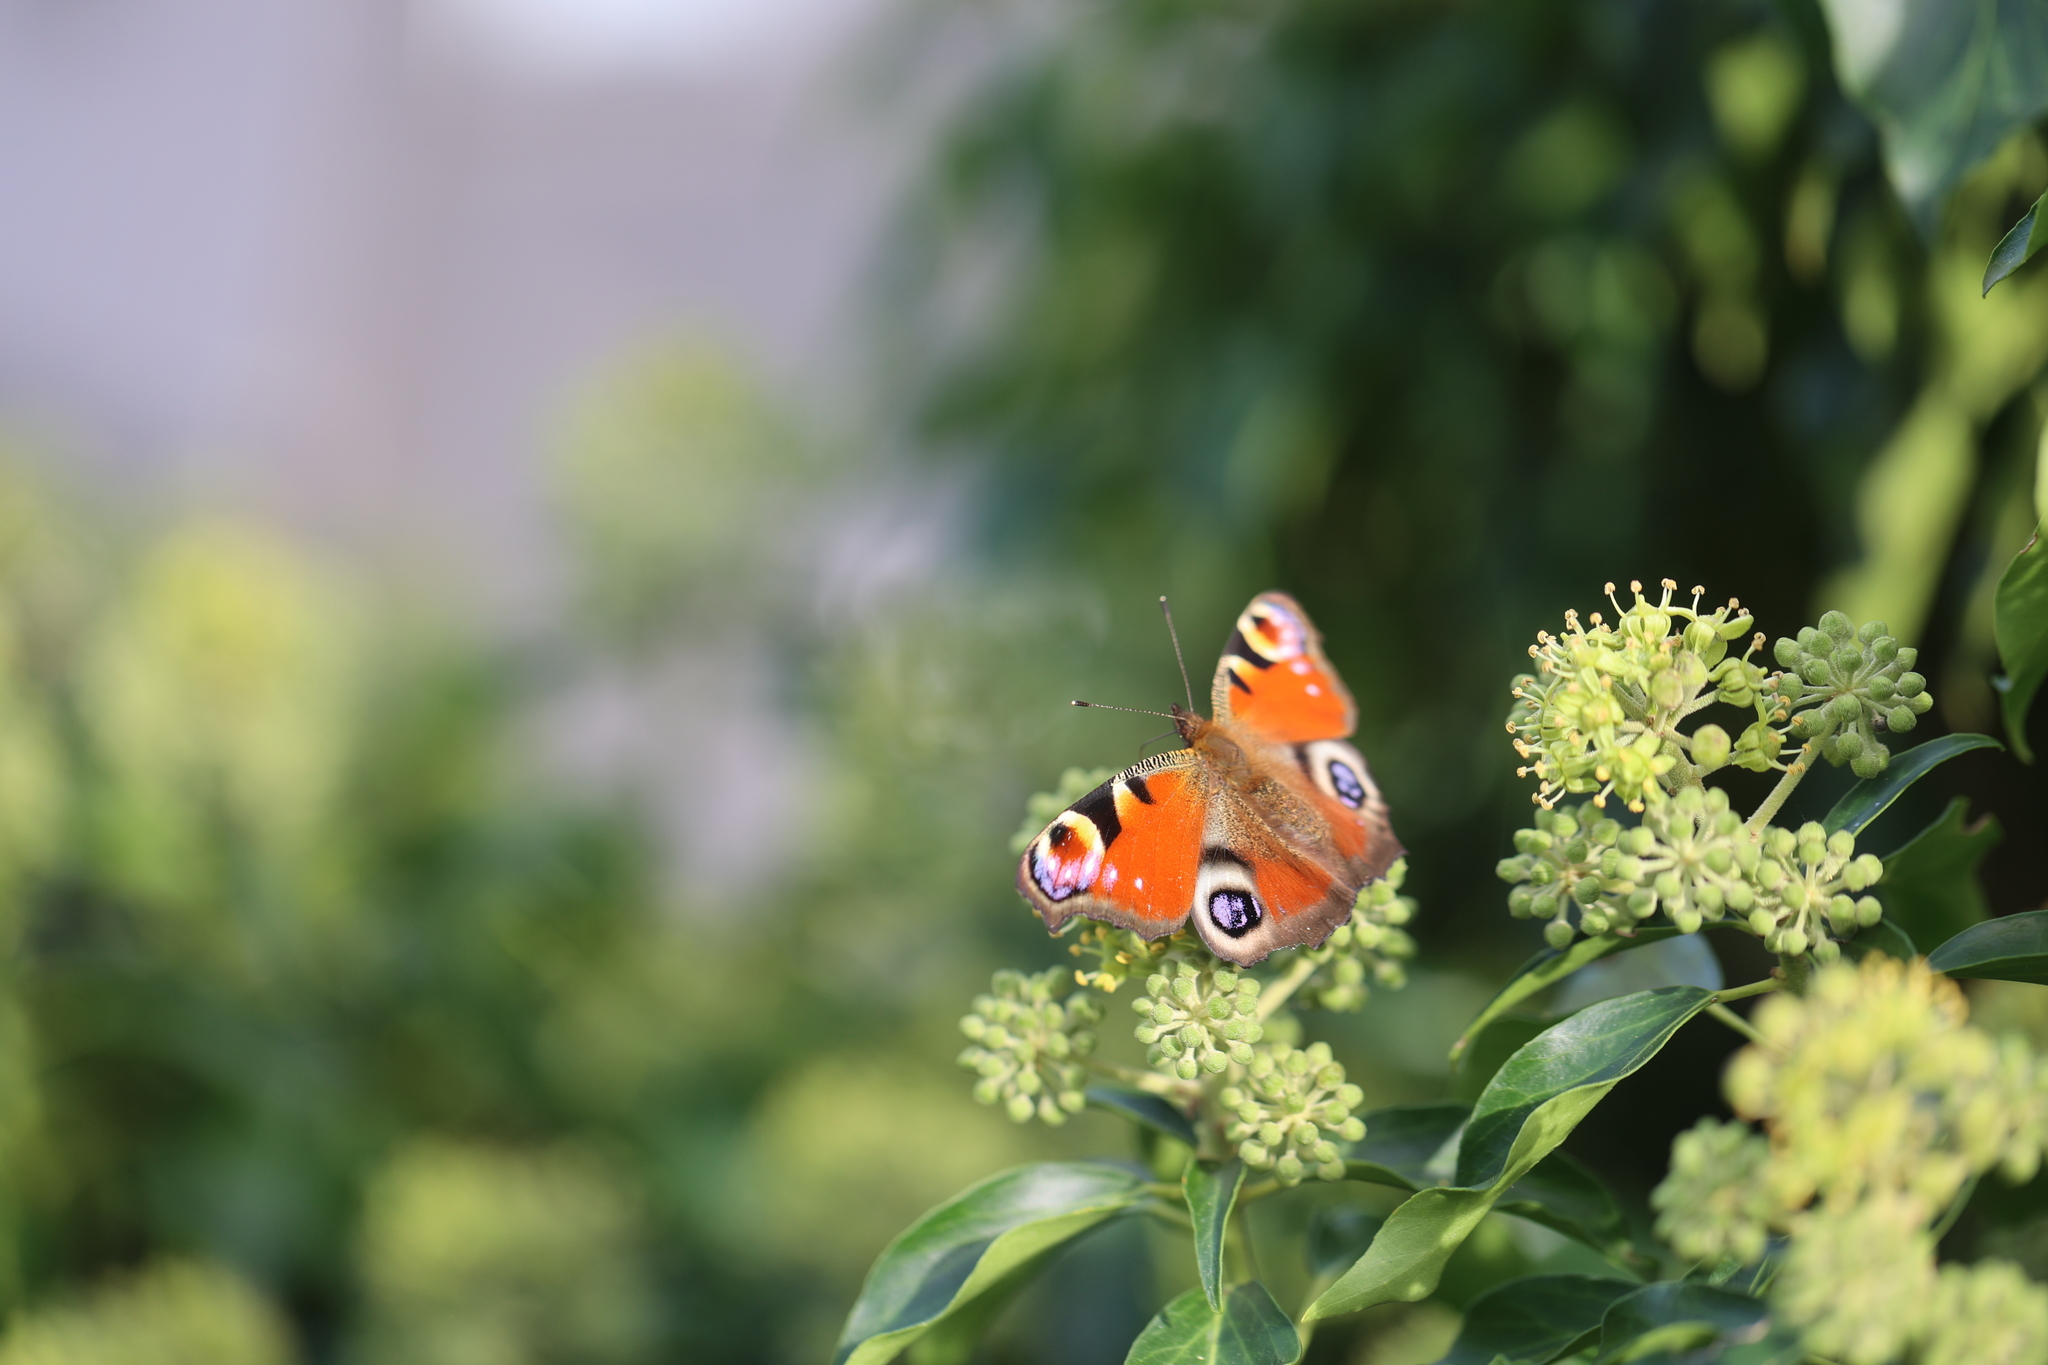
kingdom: Animalia
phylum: Arthropoda
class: Insecta
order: Lepidoptera
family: Nymphalidae
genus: Aglais
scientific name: Aglais io
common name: Peacock
